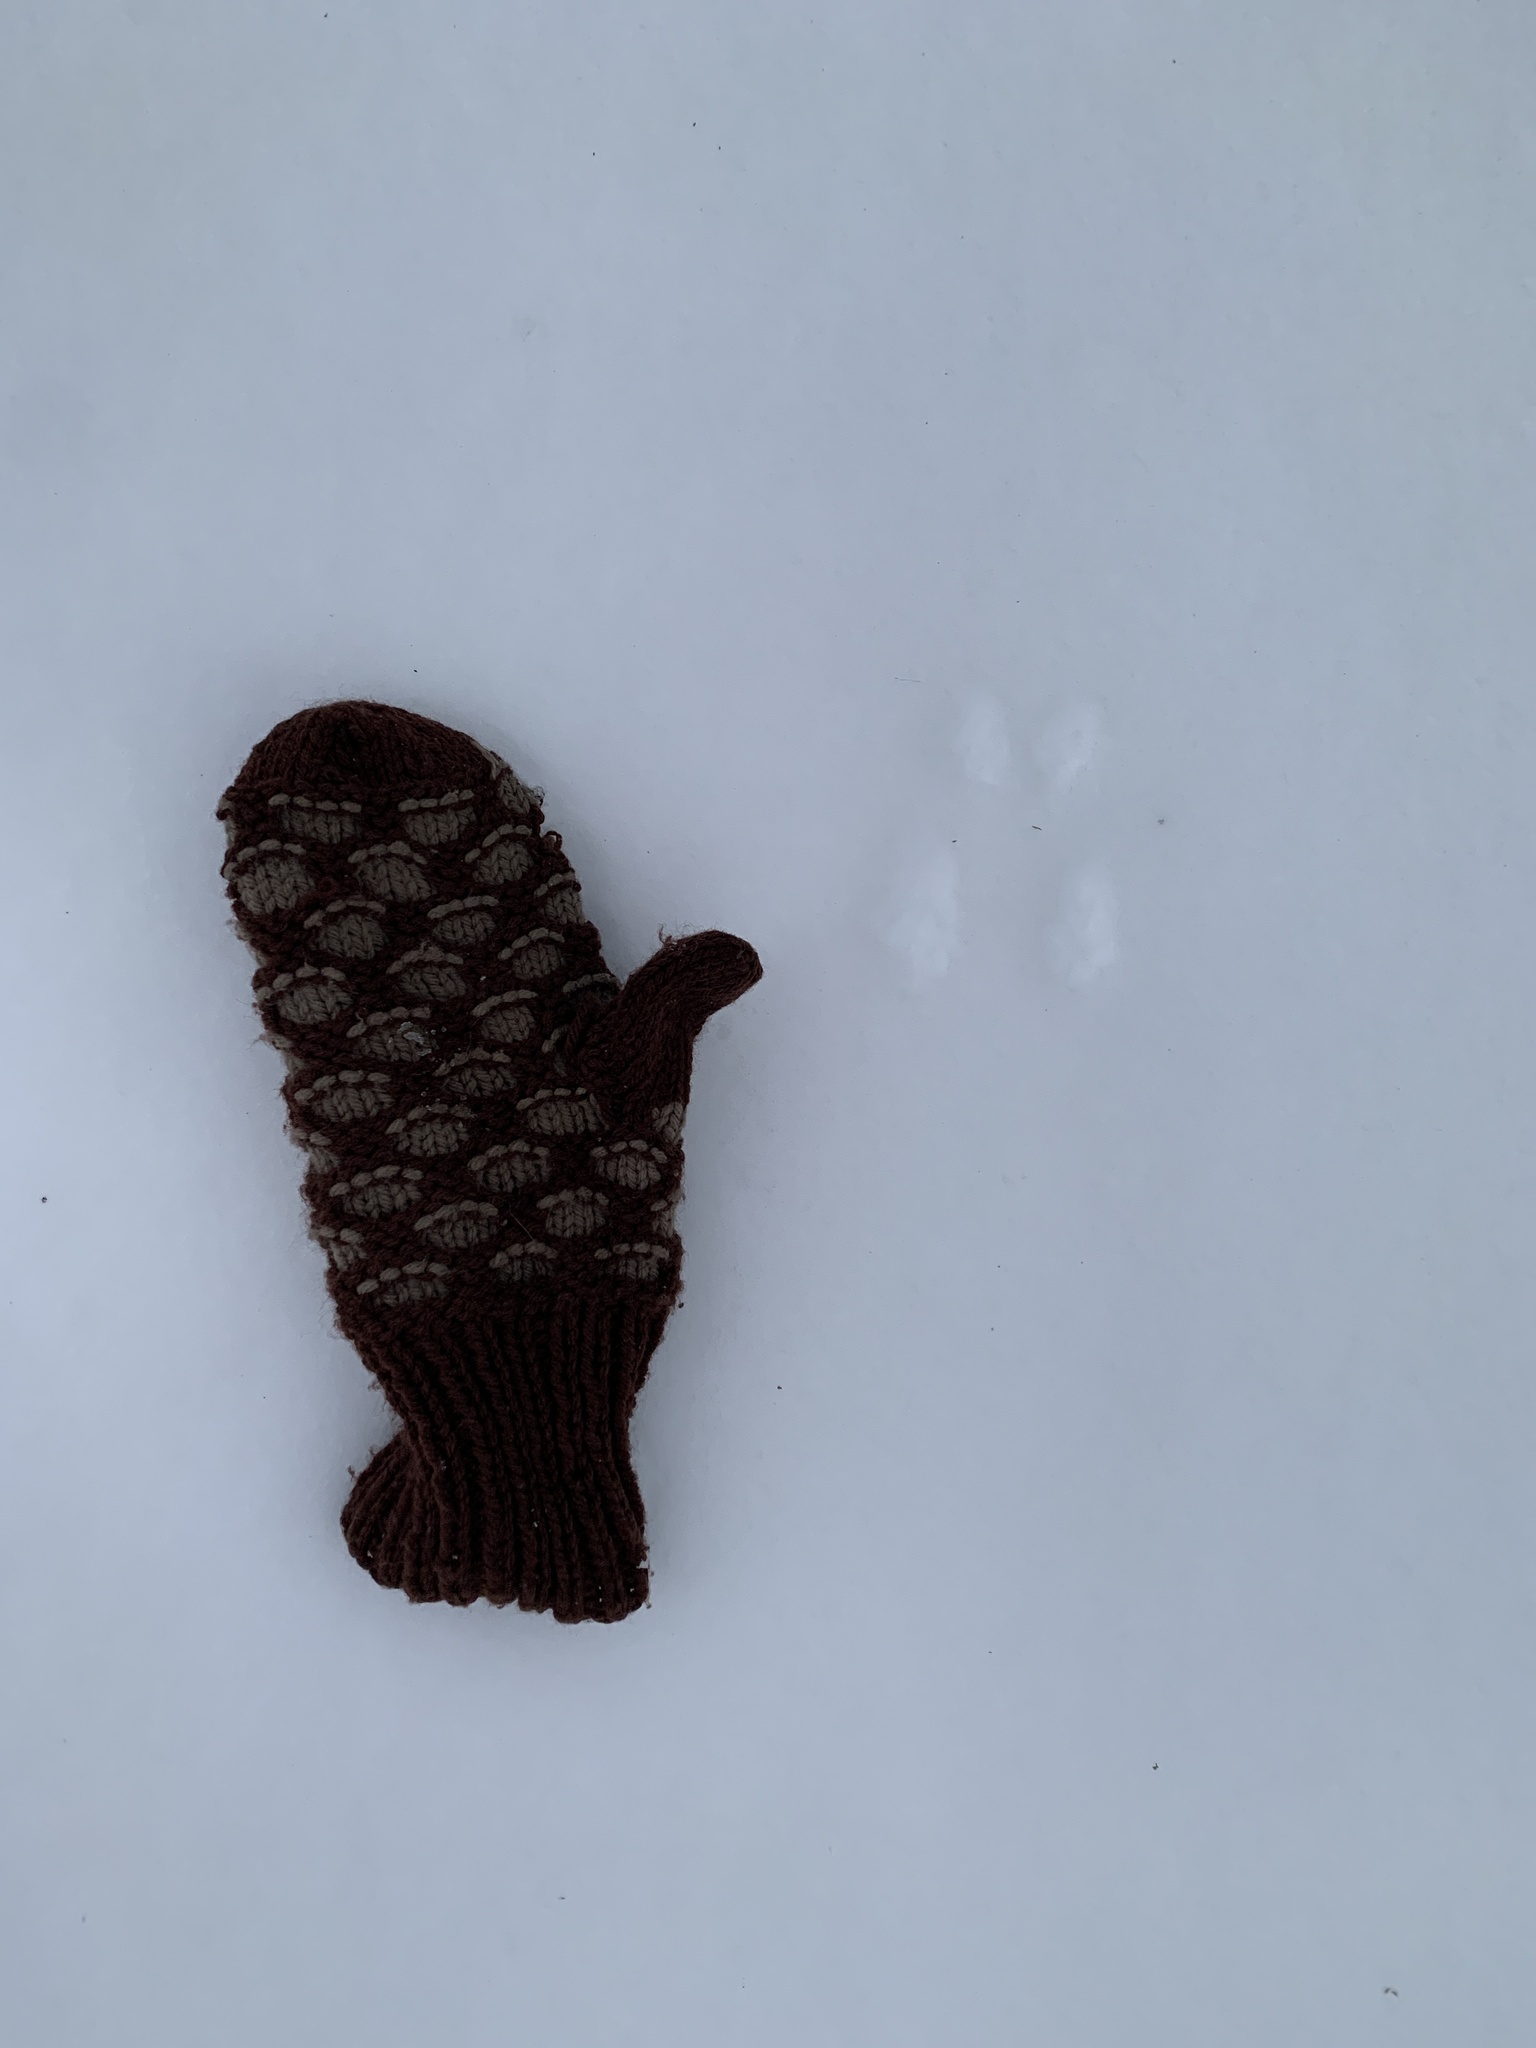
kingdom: Animalia
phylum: Chordata
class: Mammalia
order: Rodentia
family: Sciuridae
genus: Tamiasciurus
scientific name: Tamiasciurus hudsonicus
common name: Red squirrel
